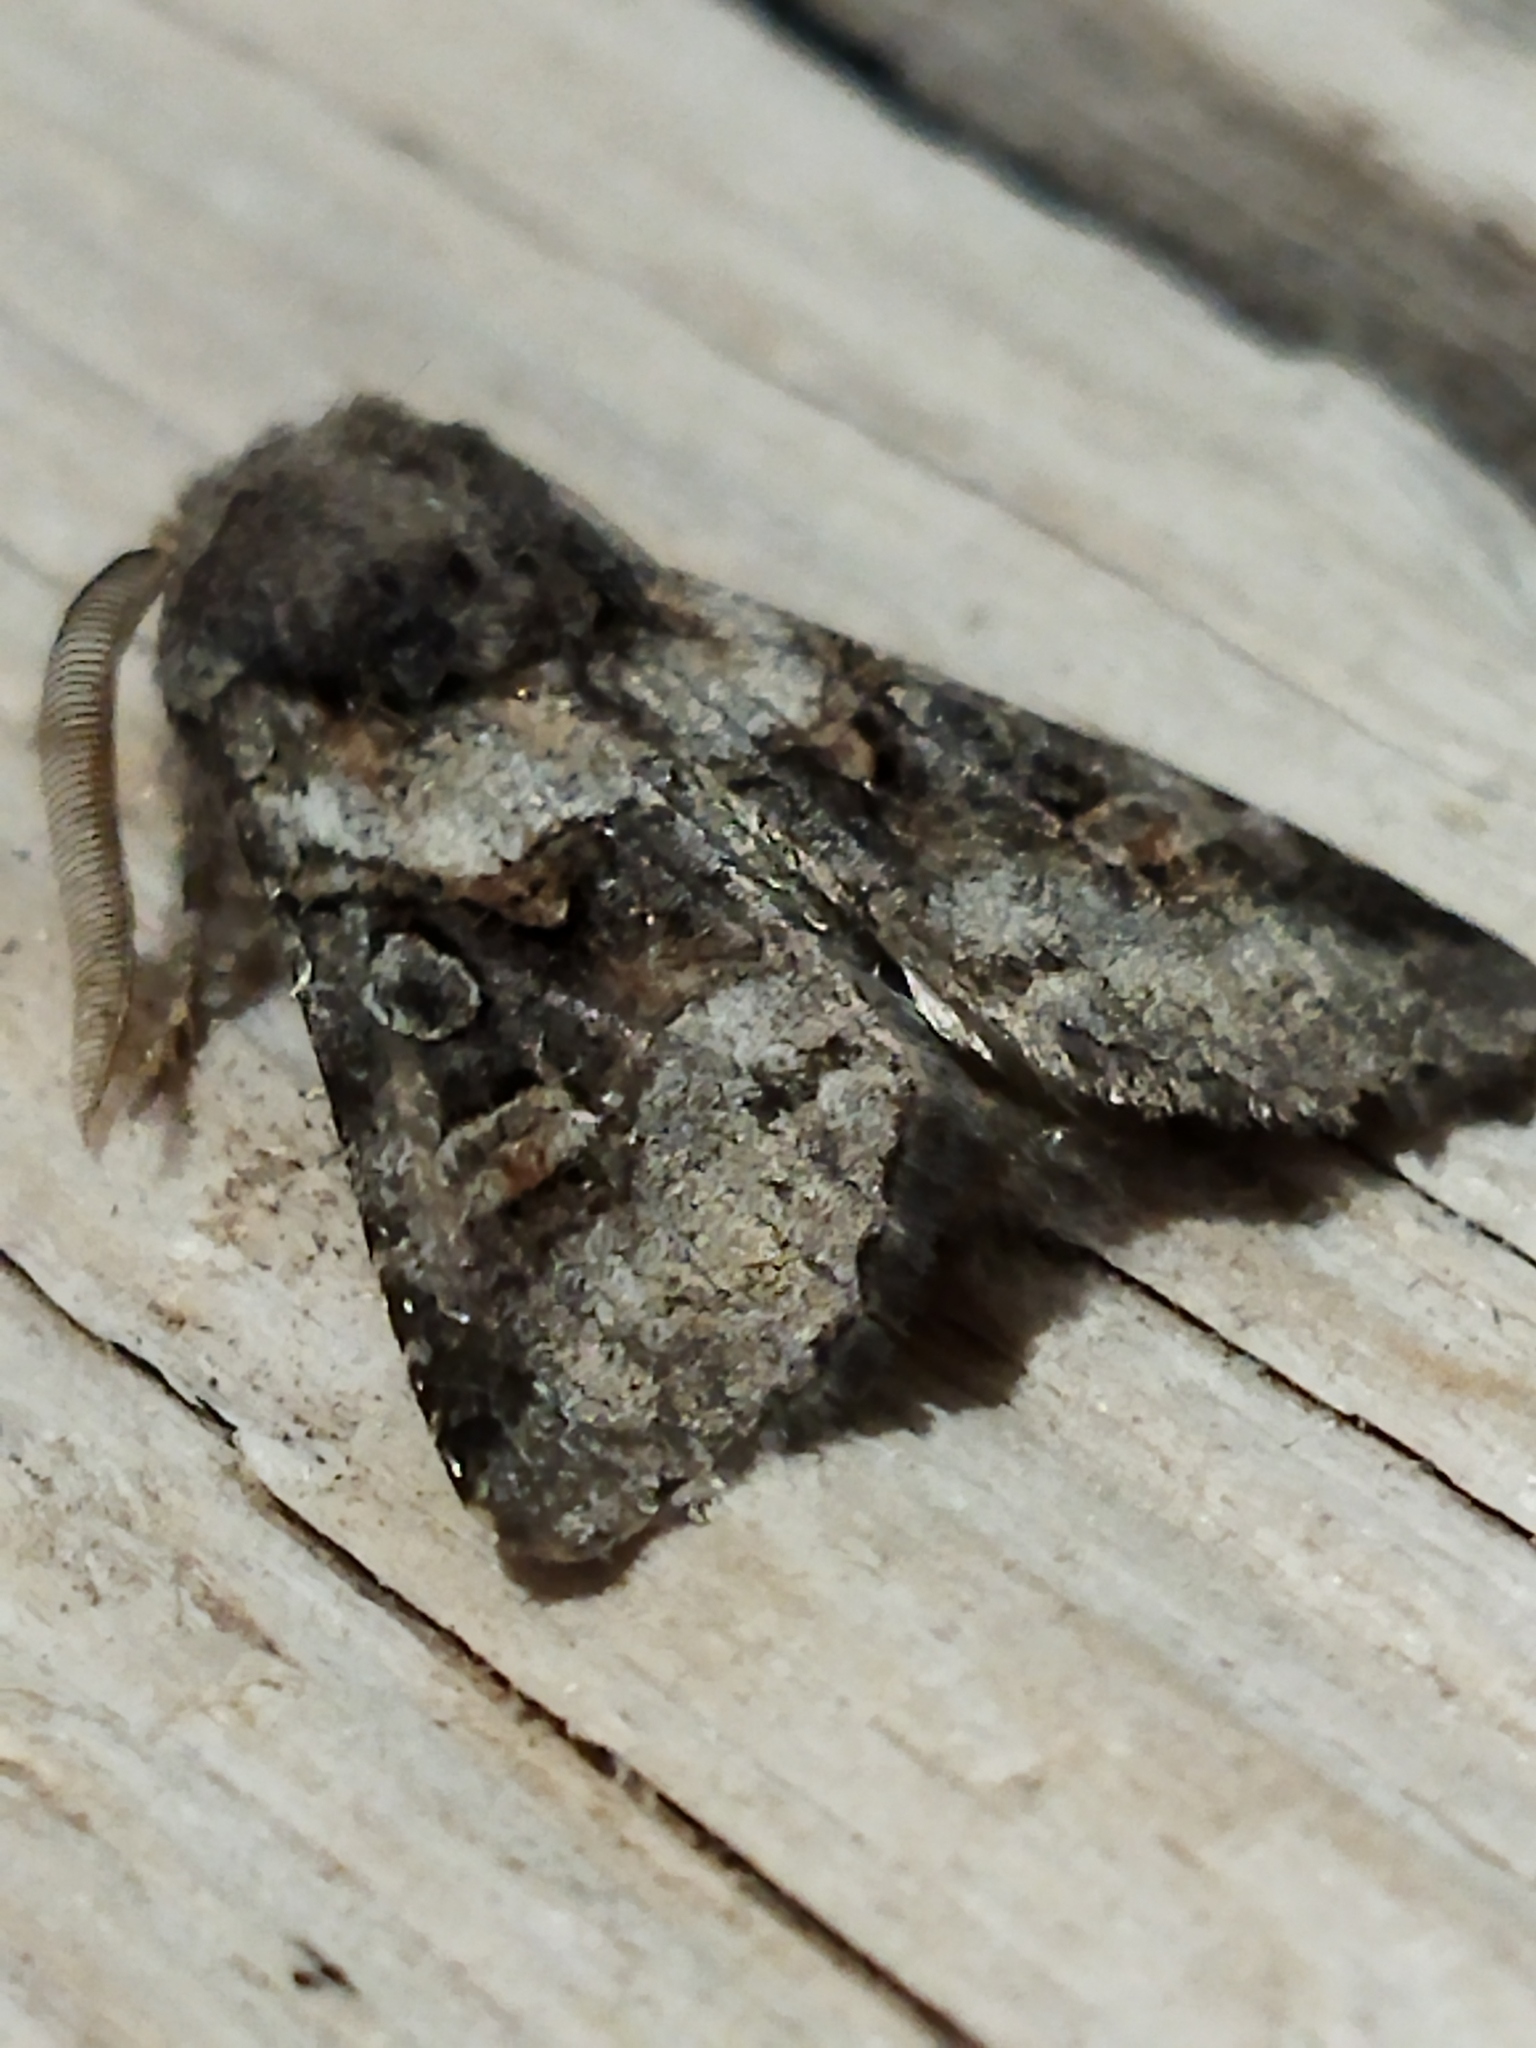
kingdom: Animalia
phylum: Arthropoda
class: Insecta
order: Lepidoptera
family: Noctuidae
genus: Cleoceris
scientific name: Cleoceris scoriacea
